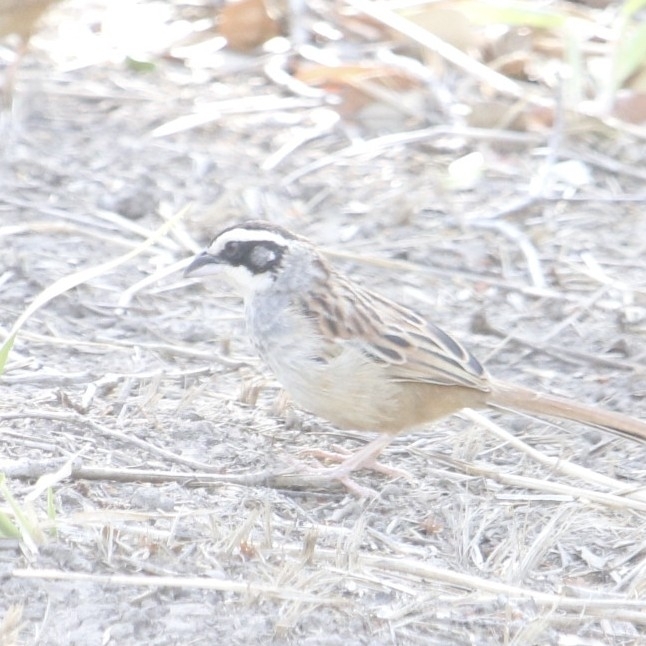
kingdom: Animalia
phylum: Chordata
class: Aves
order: Passeriformes
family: Passerellidae
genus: Peucaea
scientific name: Peucaea ruficauda
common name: Stripe-headed sparrow
